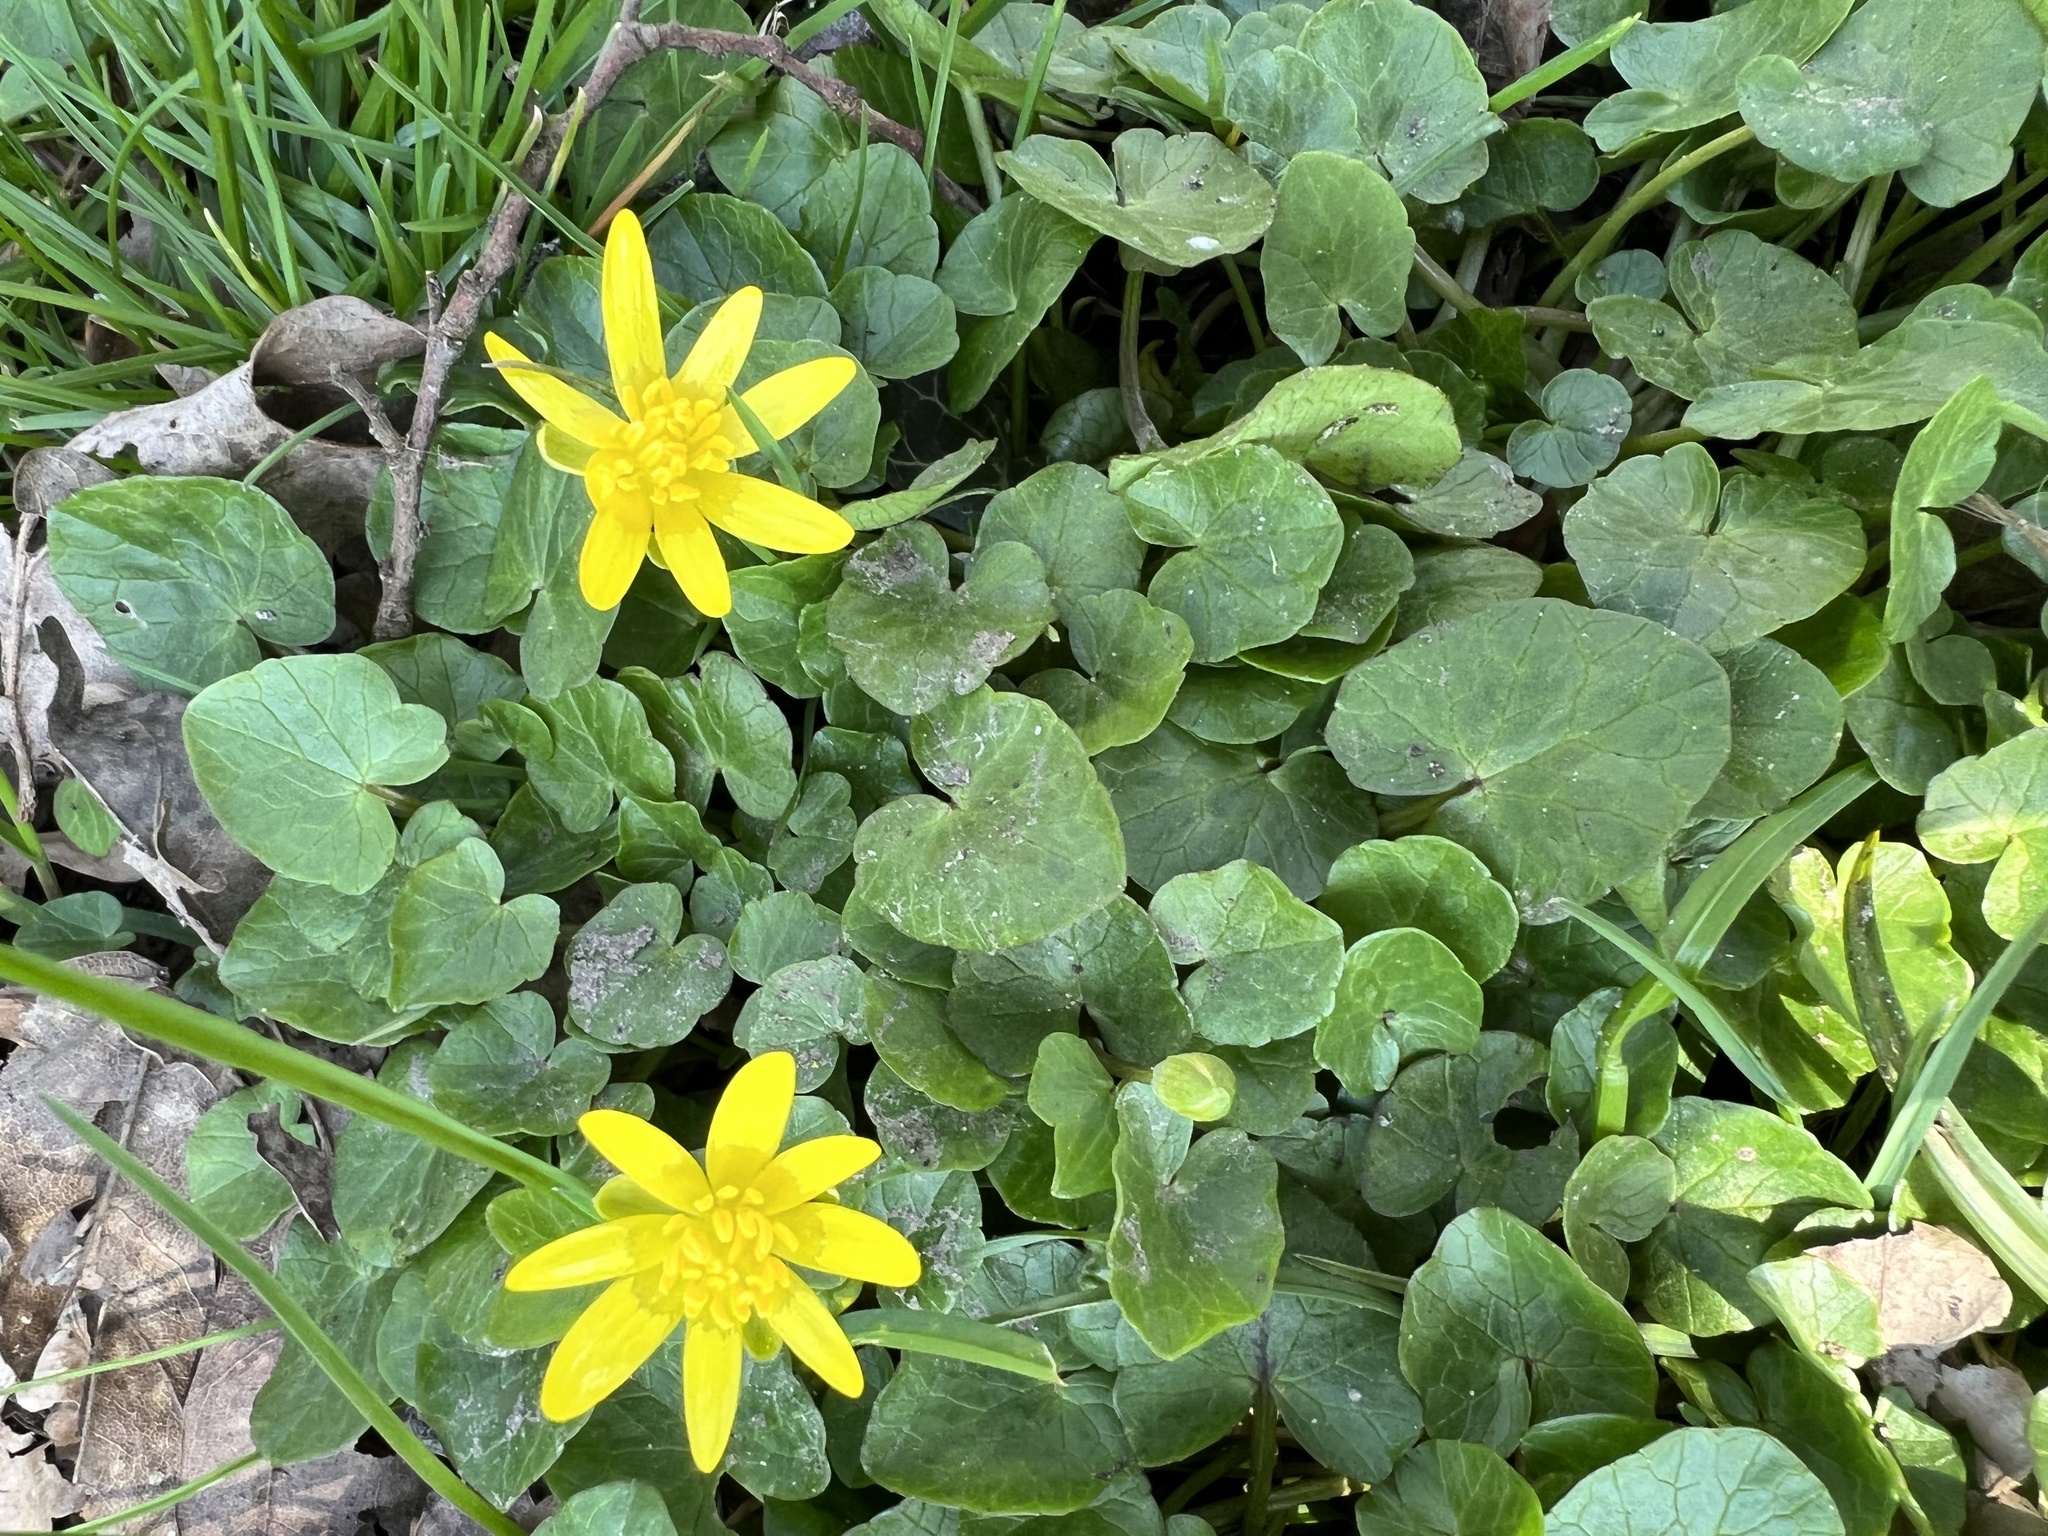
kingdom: Plantae
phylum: Tracheophyta
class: Magnoliopsida
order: Ranunculales
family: Ranunculaceae
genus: Ficaria
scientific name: Ficaria verna
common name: Lesser celandine
